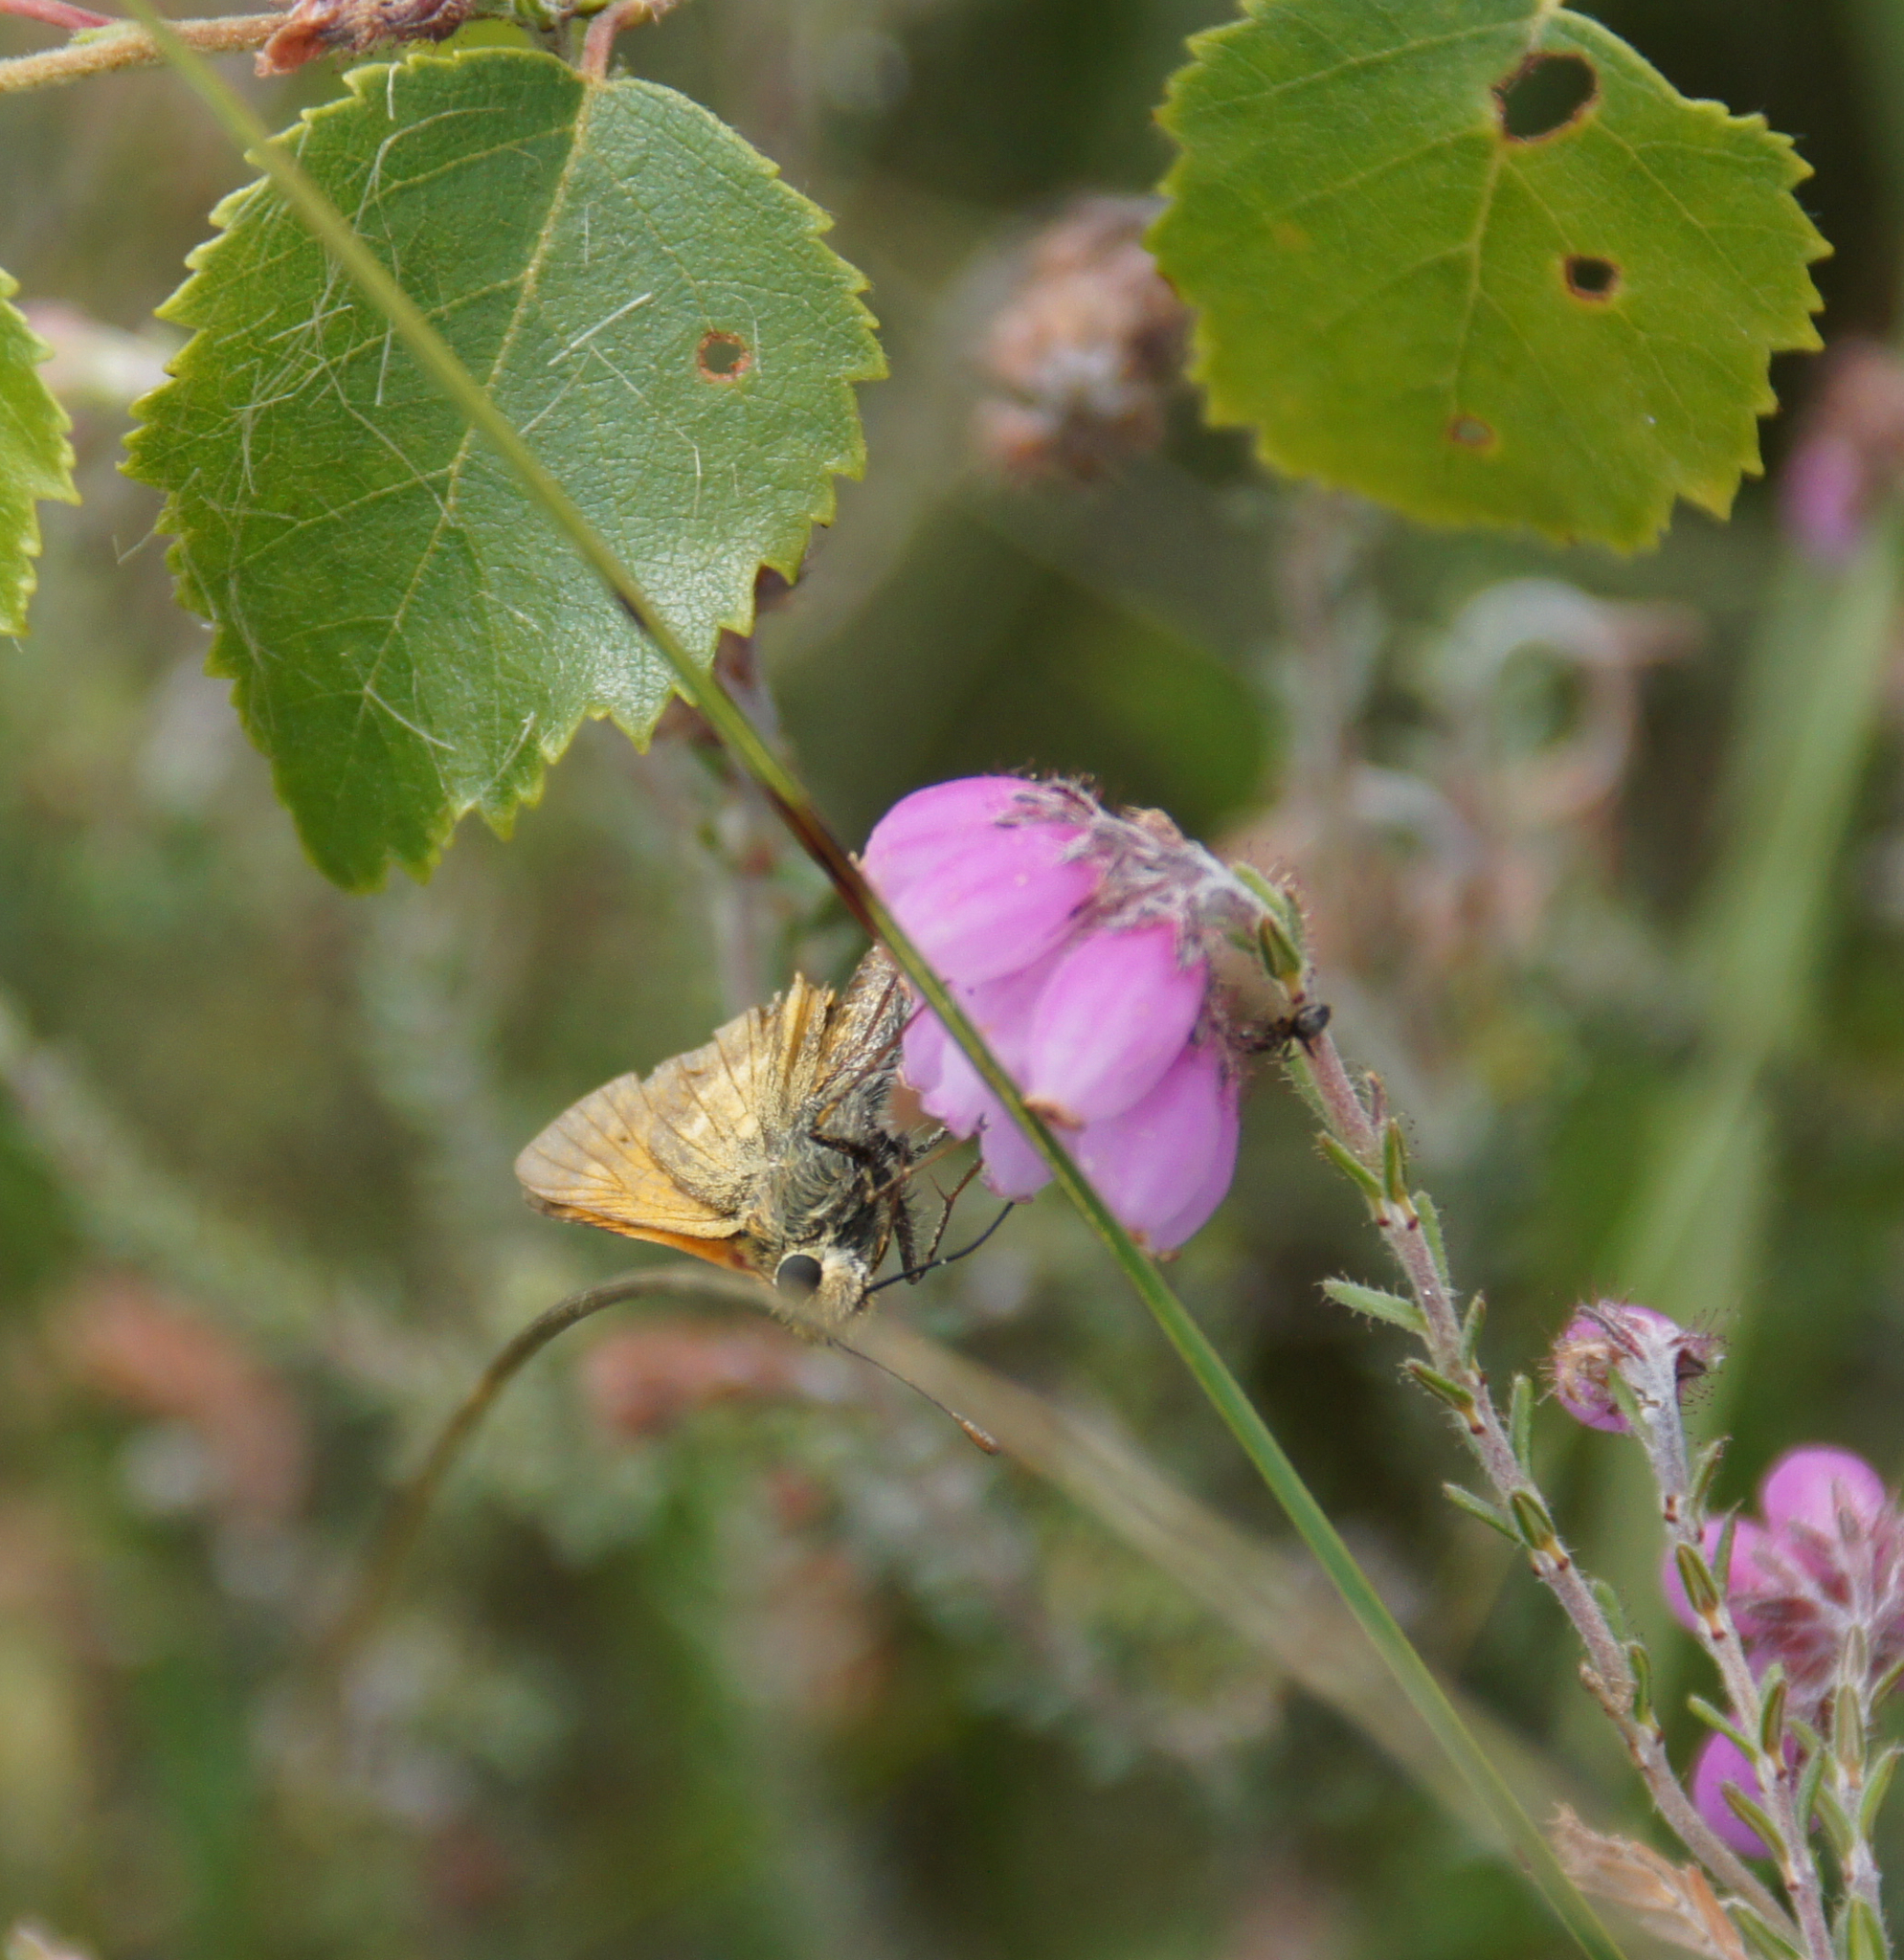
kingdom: Animalia
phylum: Arthropoda
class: Insecta
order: Lepidoptera
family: Hesperiidae
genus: Ochlodes
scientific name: Ochlodes venata
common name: Large skipper
